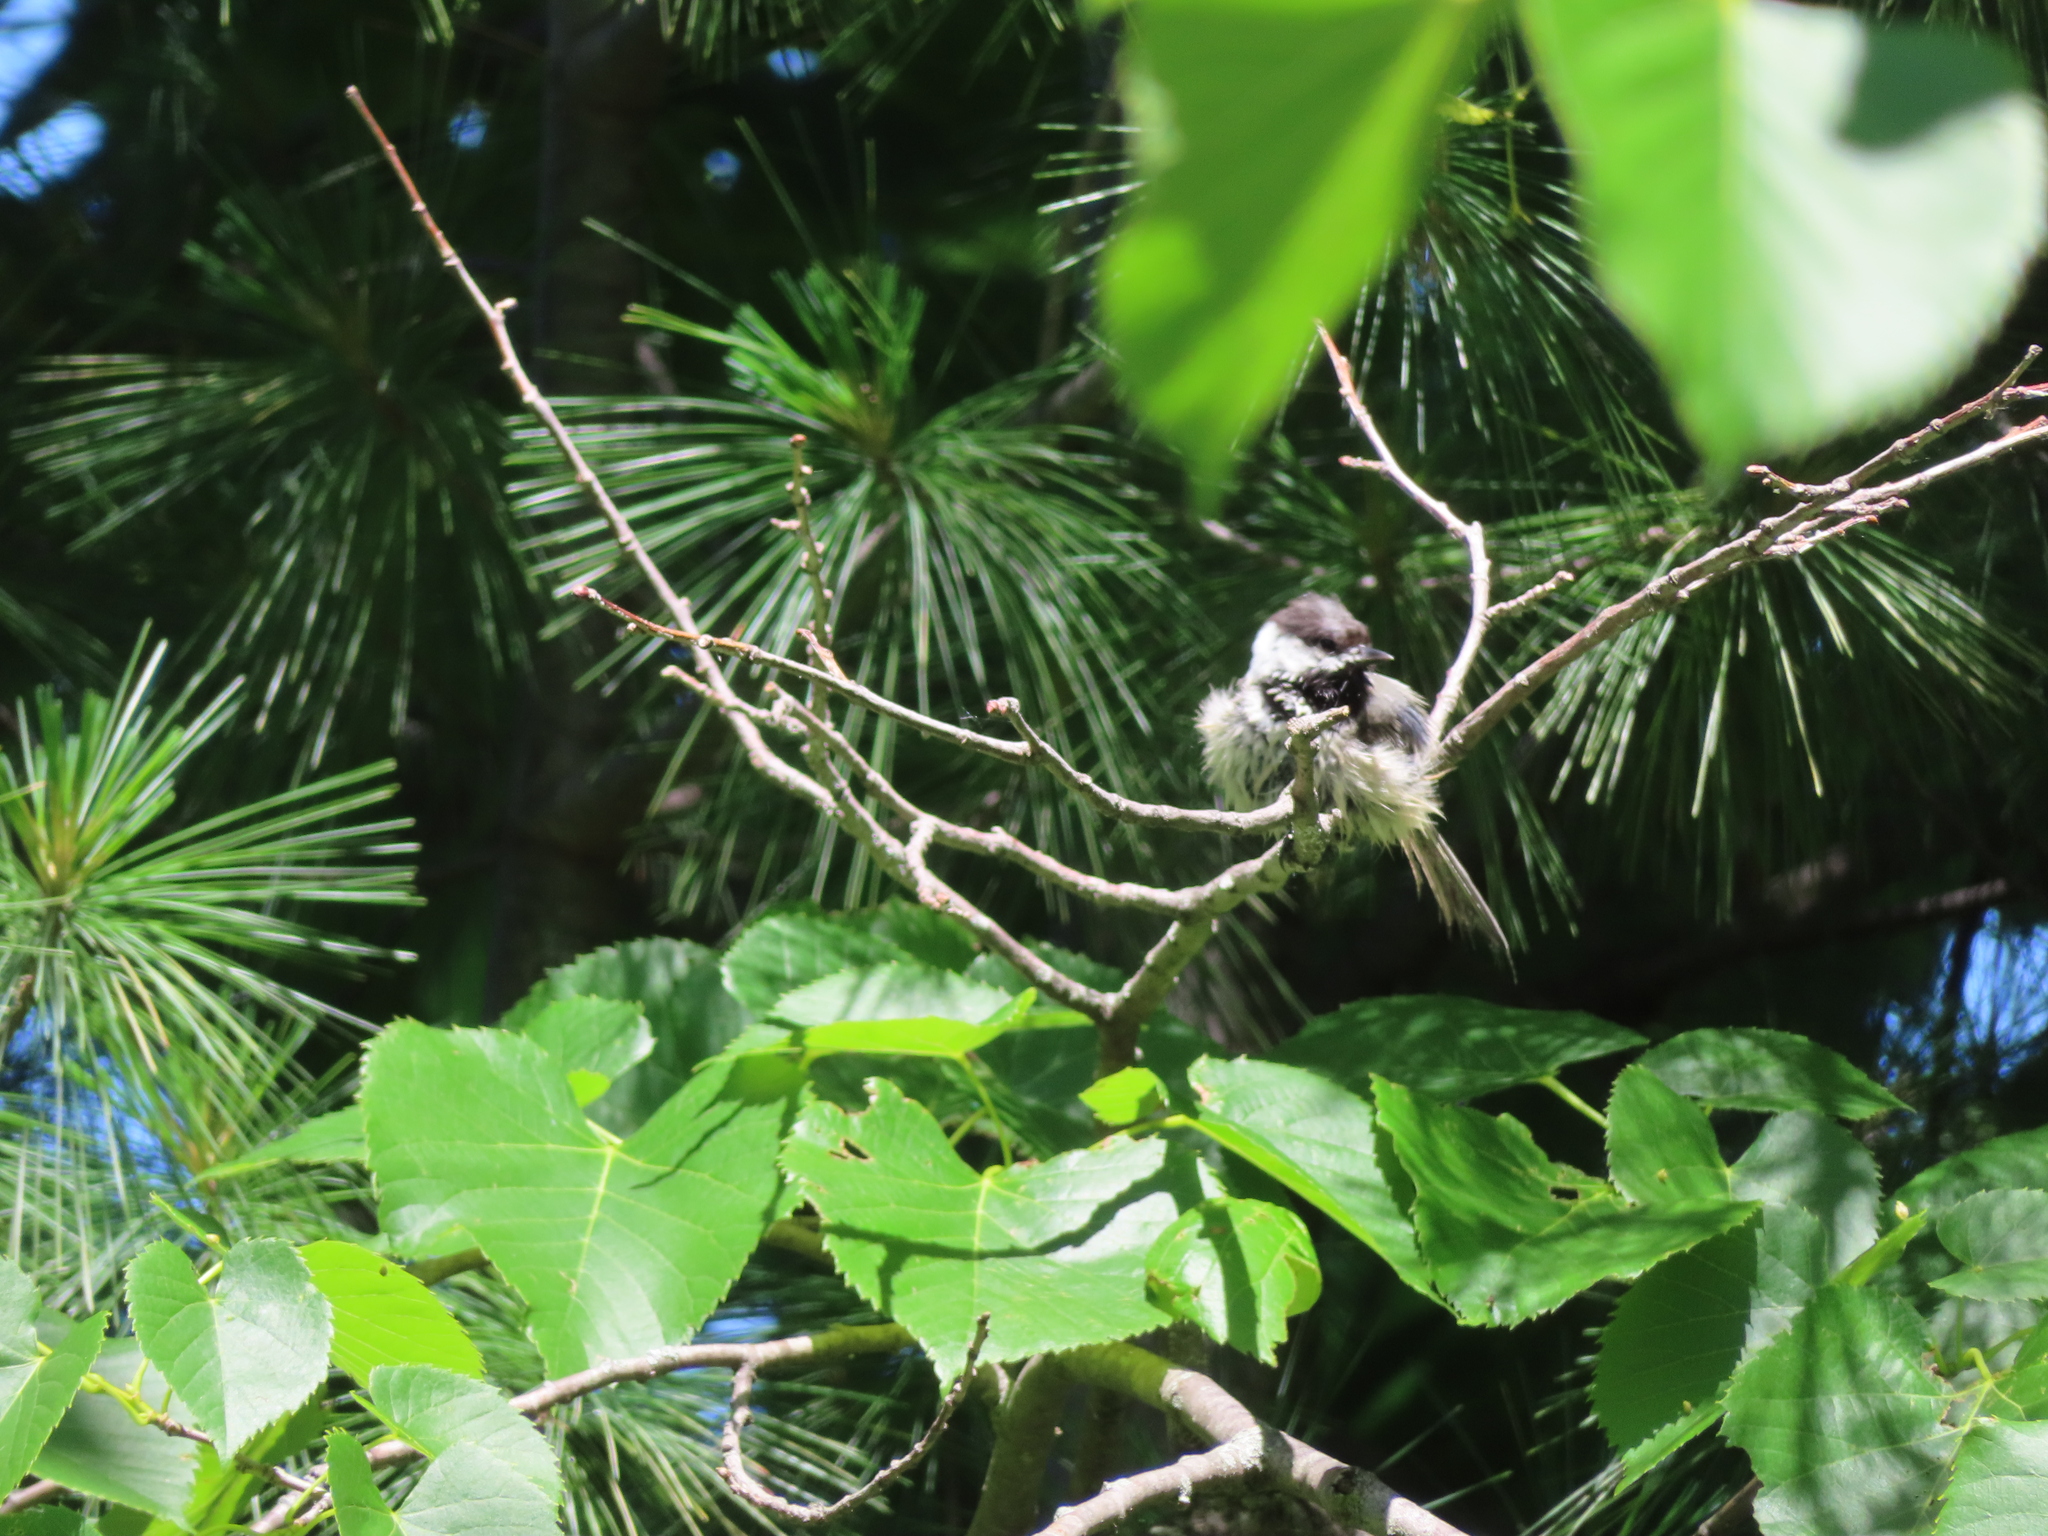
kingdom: Animalia
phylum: Chordata
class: Aves
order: Passeriformes
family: Paridae
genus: Poecile
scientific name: Poecile atricapillus
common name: Black-capped chickadee
